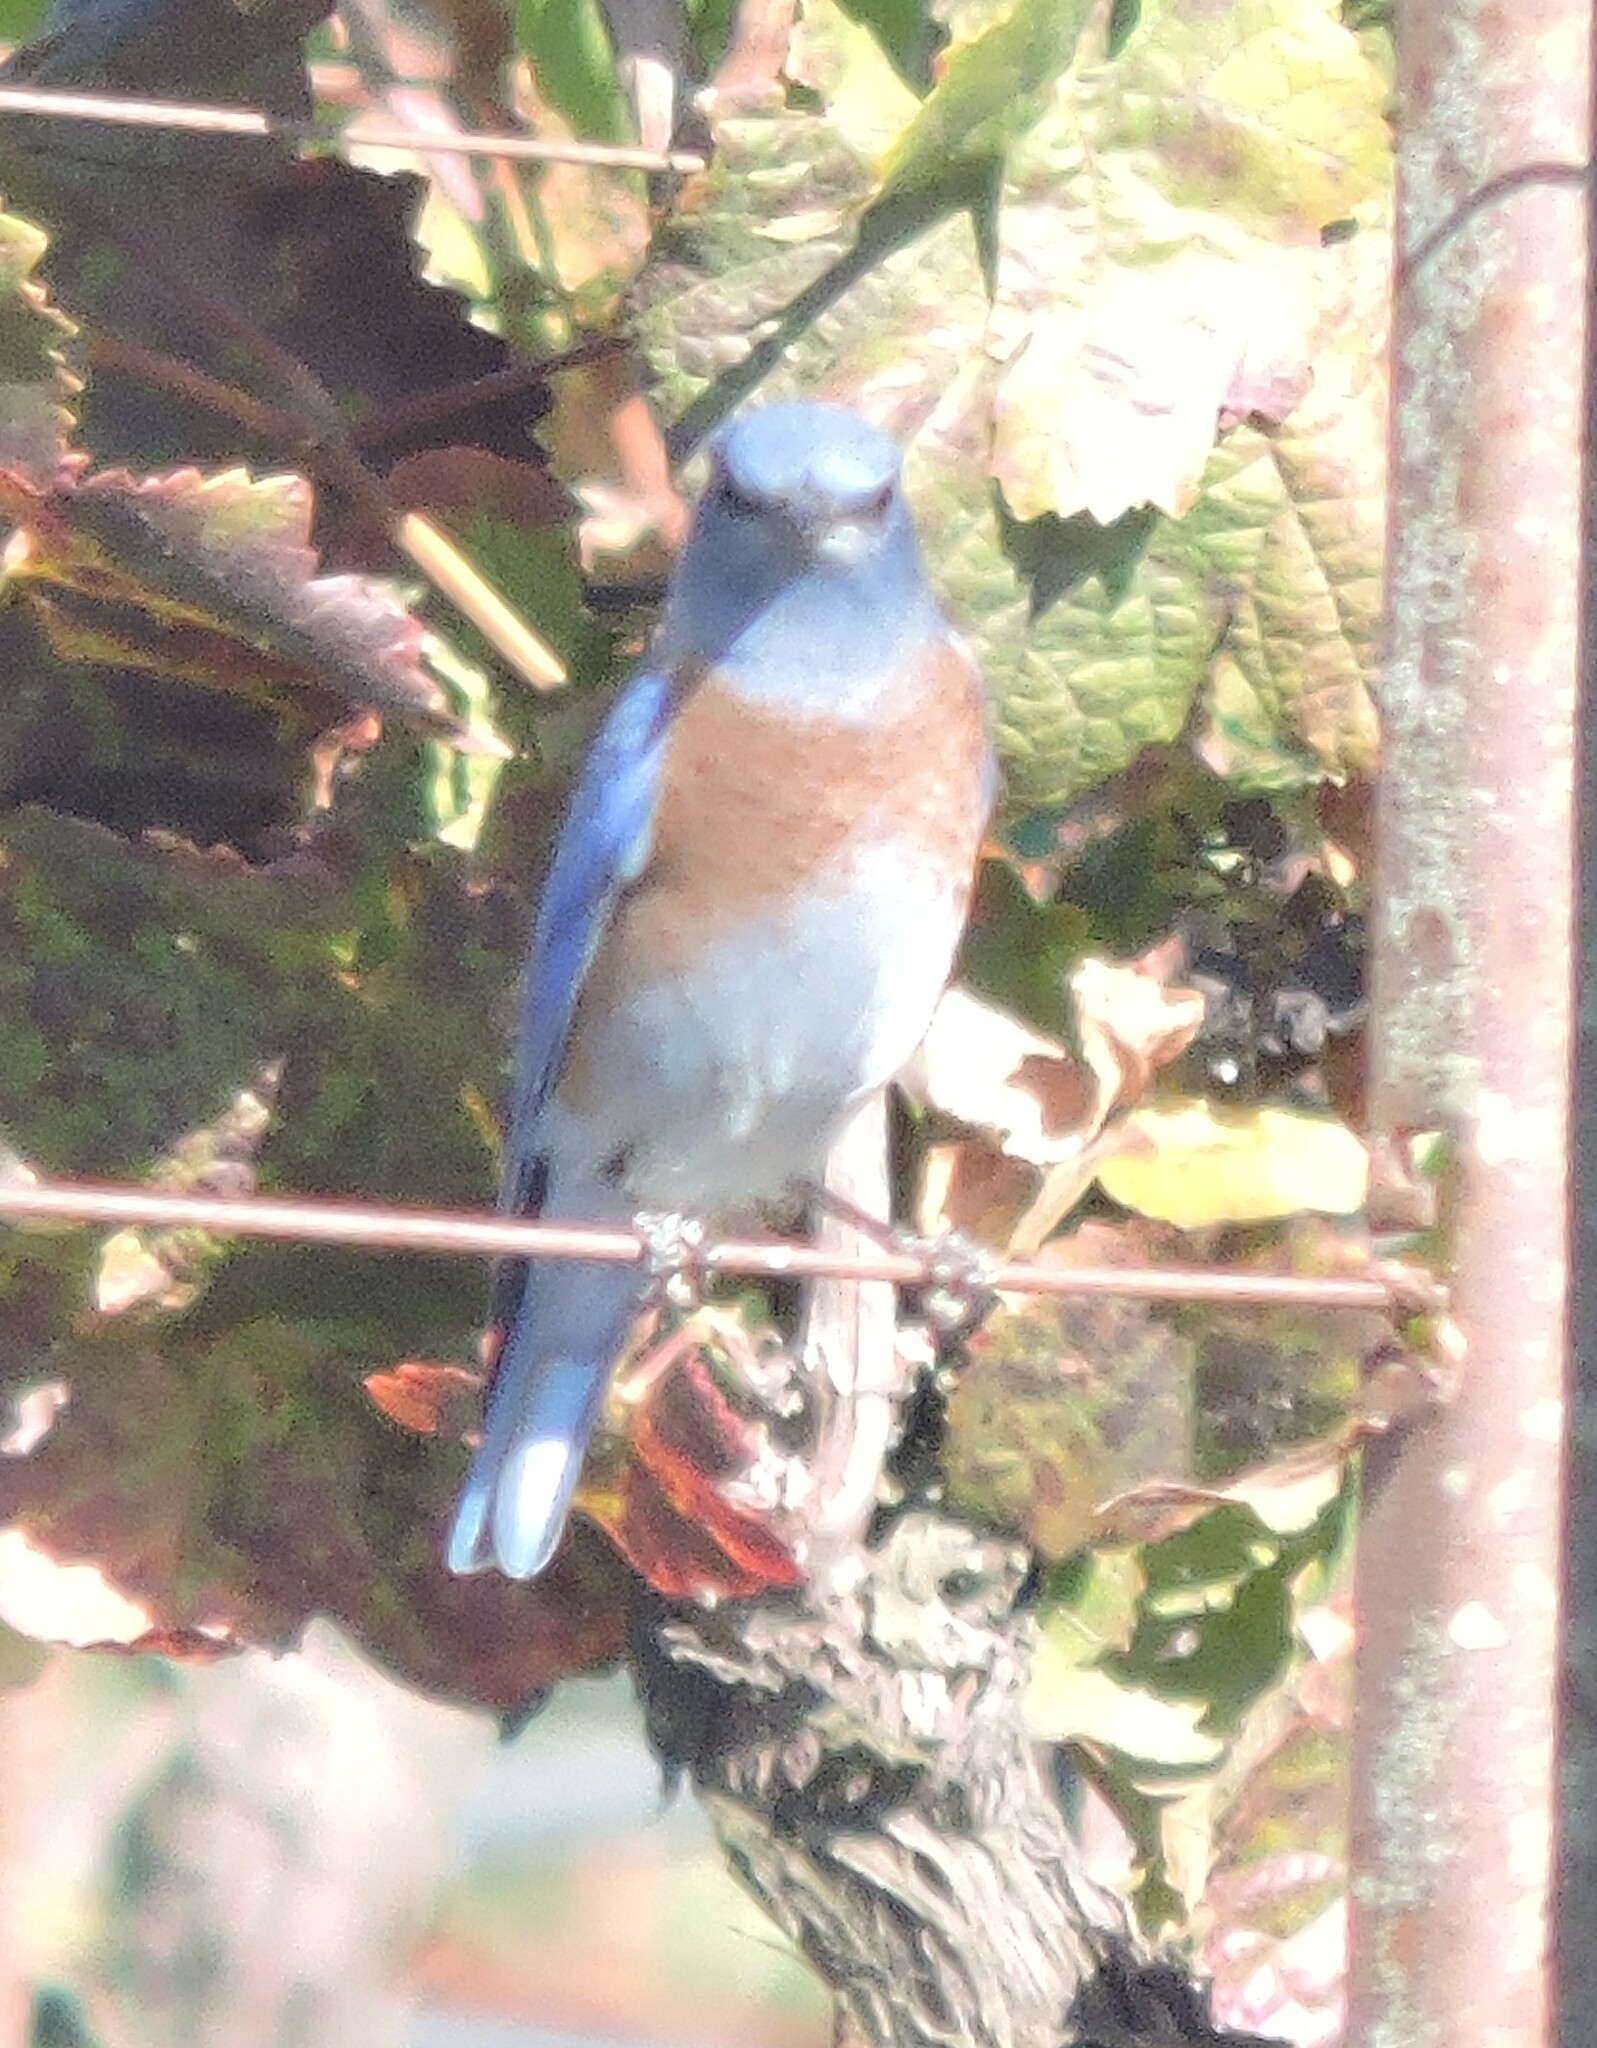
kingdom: Animalia
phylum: Chordata
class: Aves
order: Passeriformes
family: Turdidae
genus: Sialia
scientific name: Sialia mexicana
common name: Western bluebird
